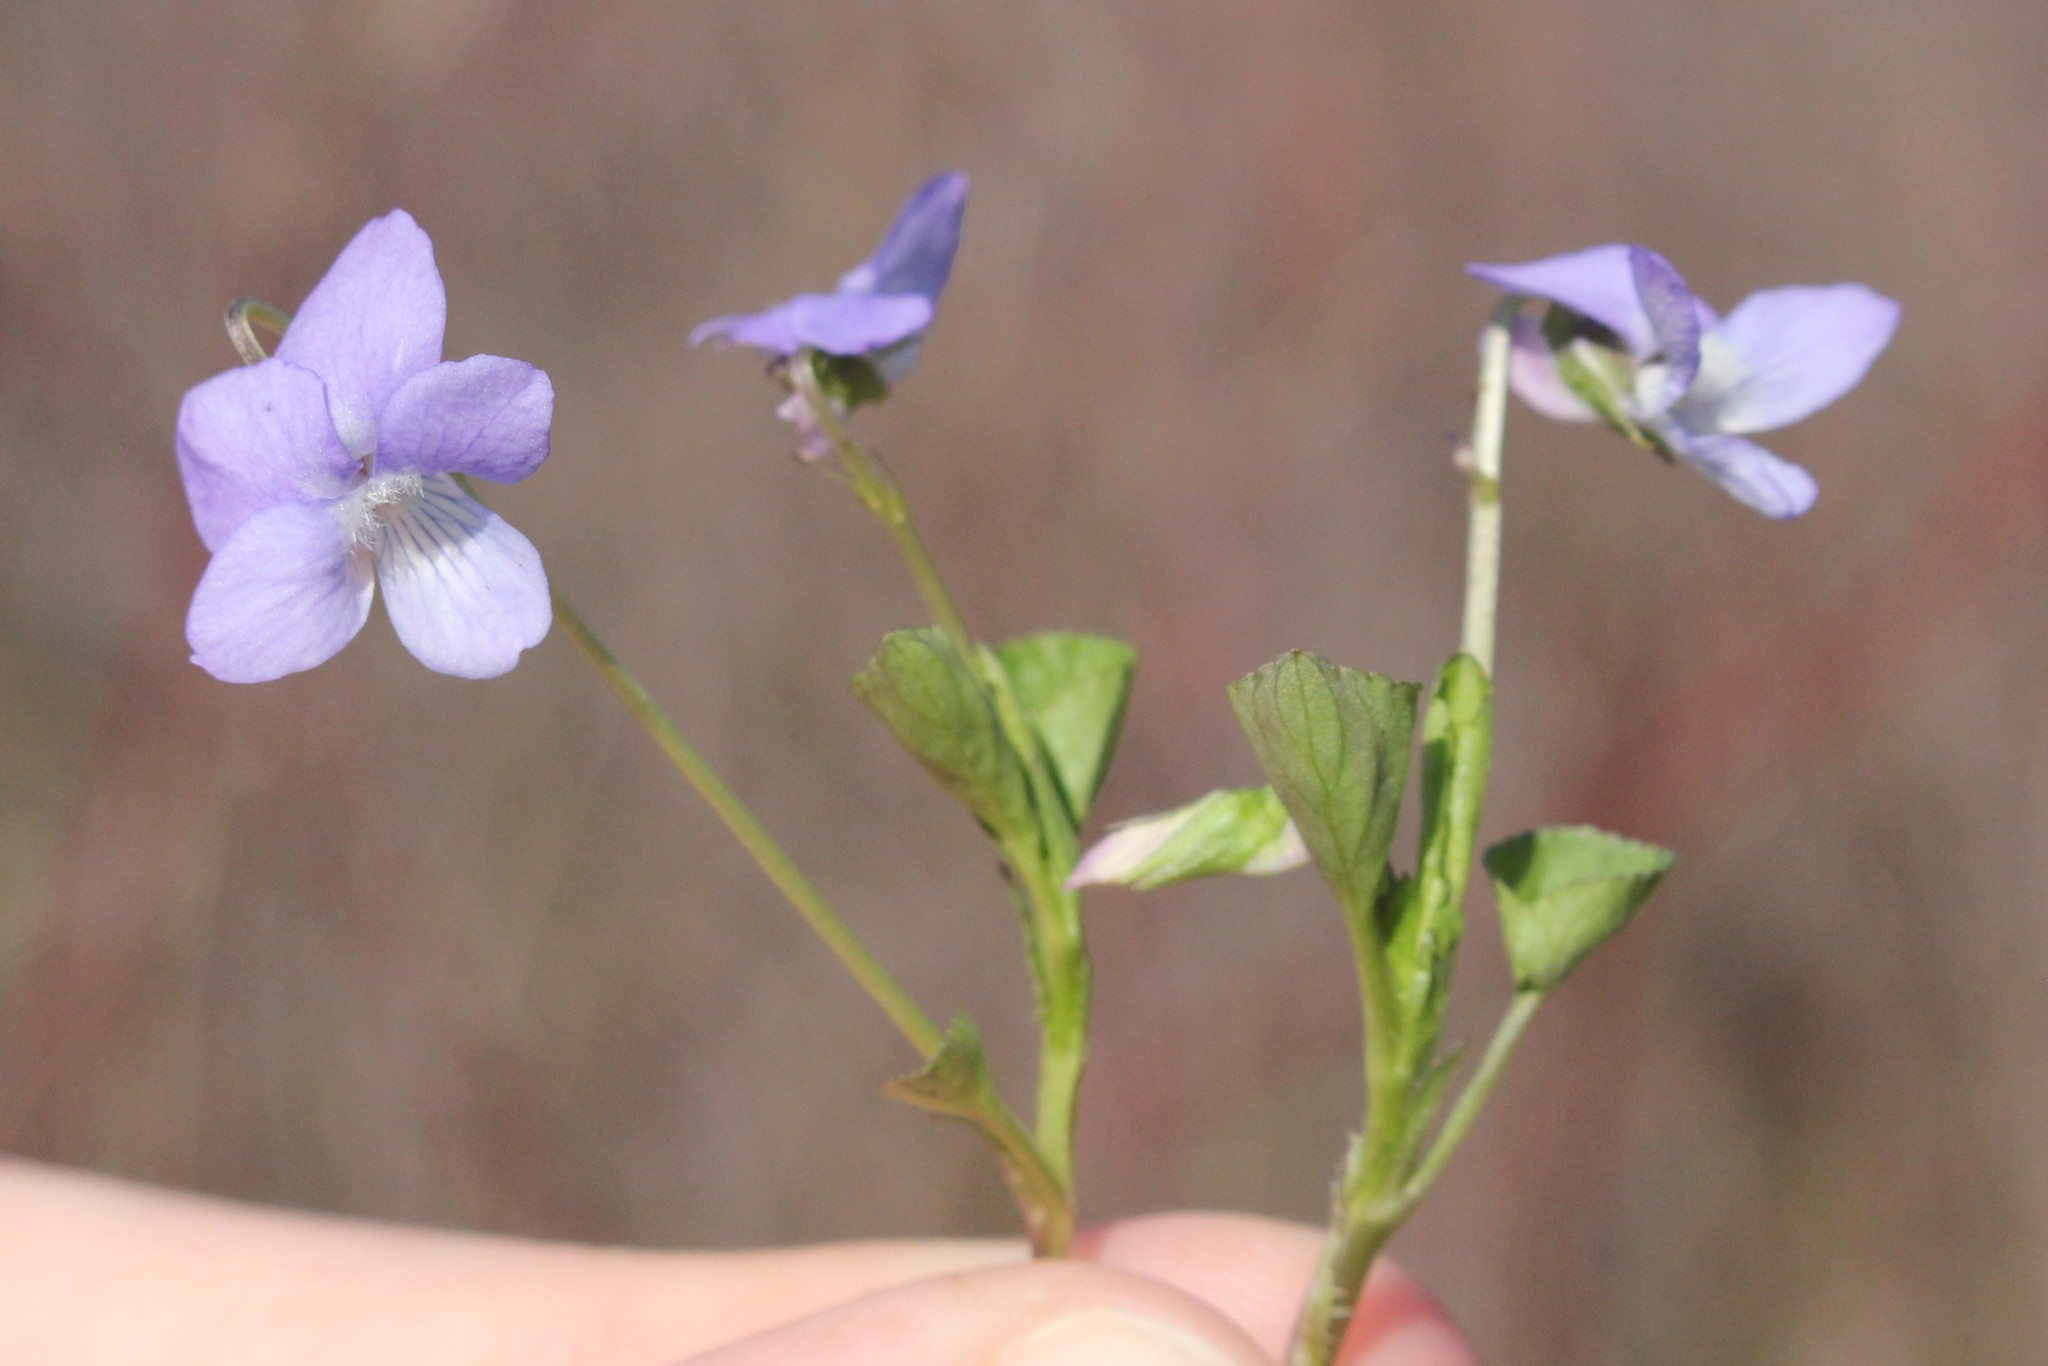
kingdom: Plantae
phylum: Tracheophyta
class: Magnoliopsida
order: Malpighiales
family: Violaceae
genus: Viola
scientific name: Viola labradorica
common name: Labrador violet
